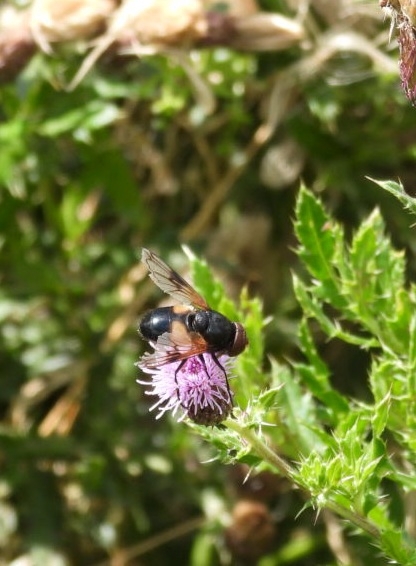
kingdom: Animalia
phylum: Arthropoda
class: Insecta
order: Diptera
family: Syrphidae
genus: Volucella
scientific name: Volucella pellucens
